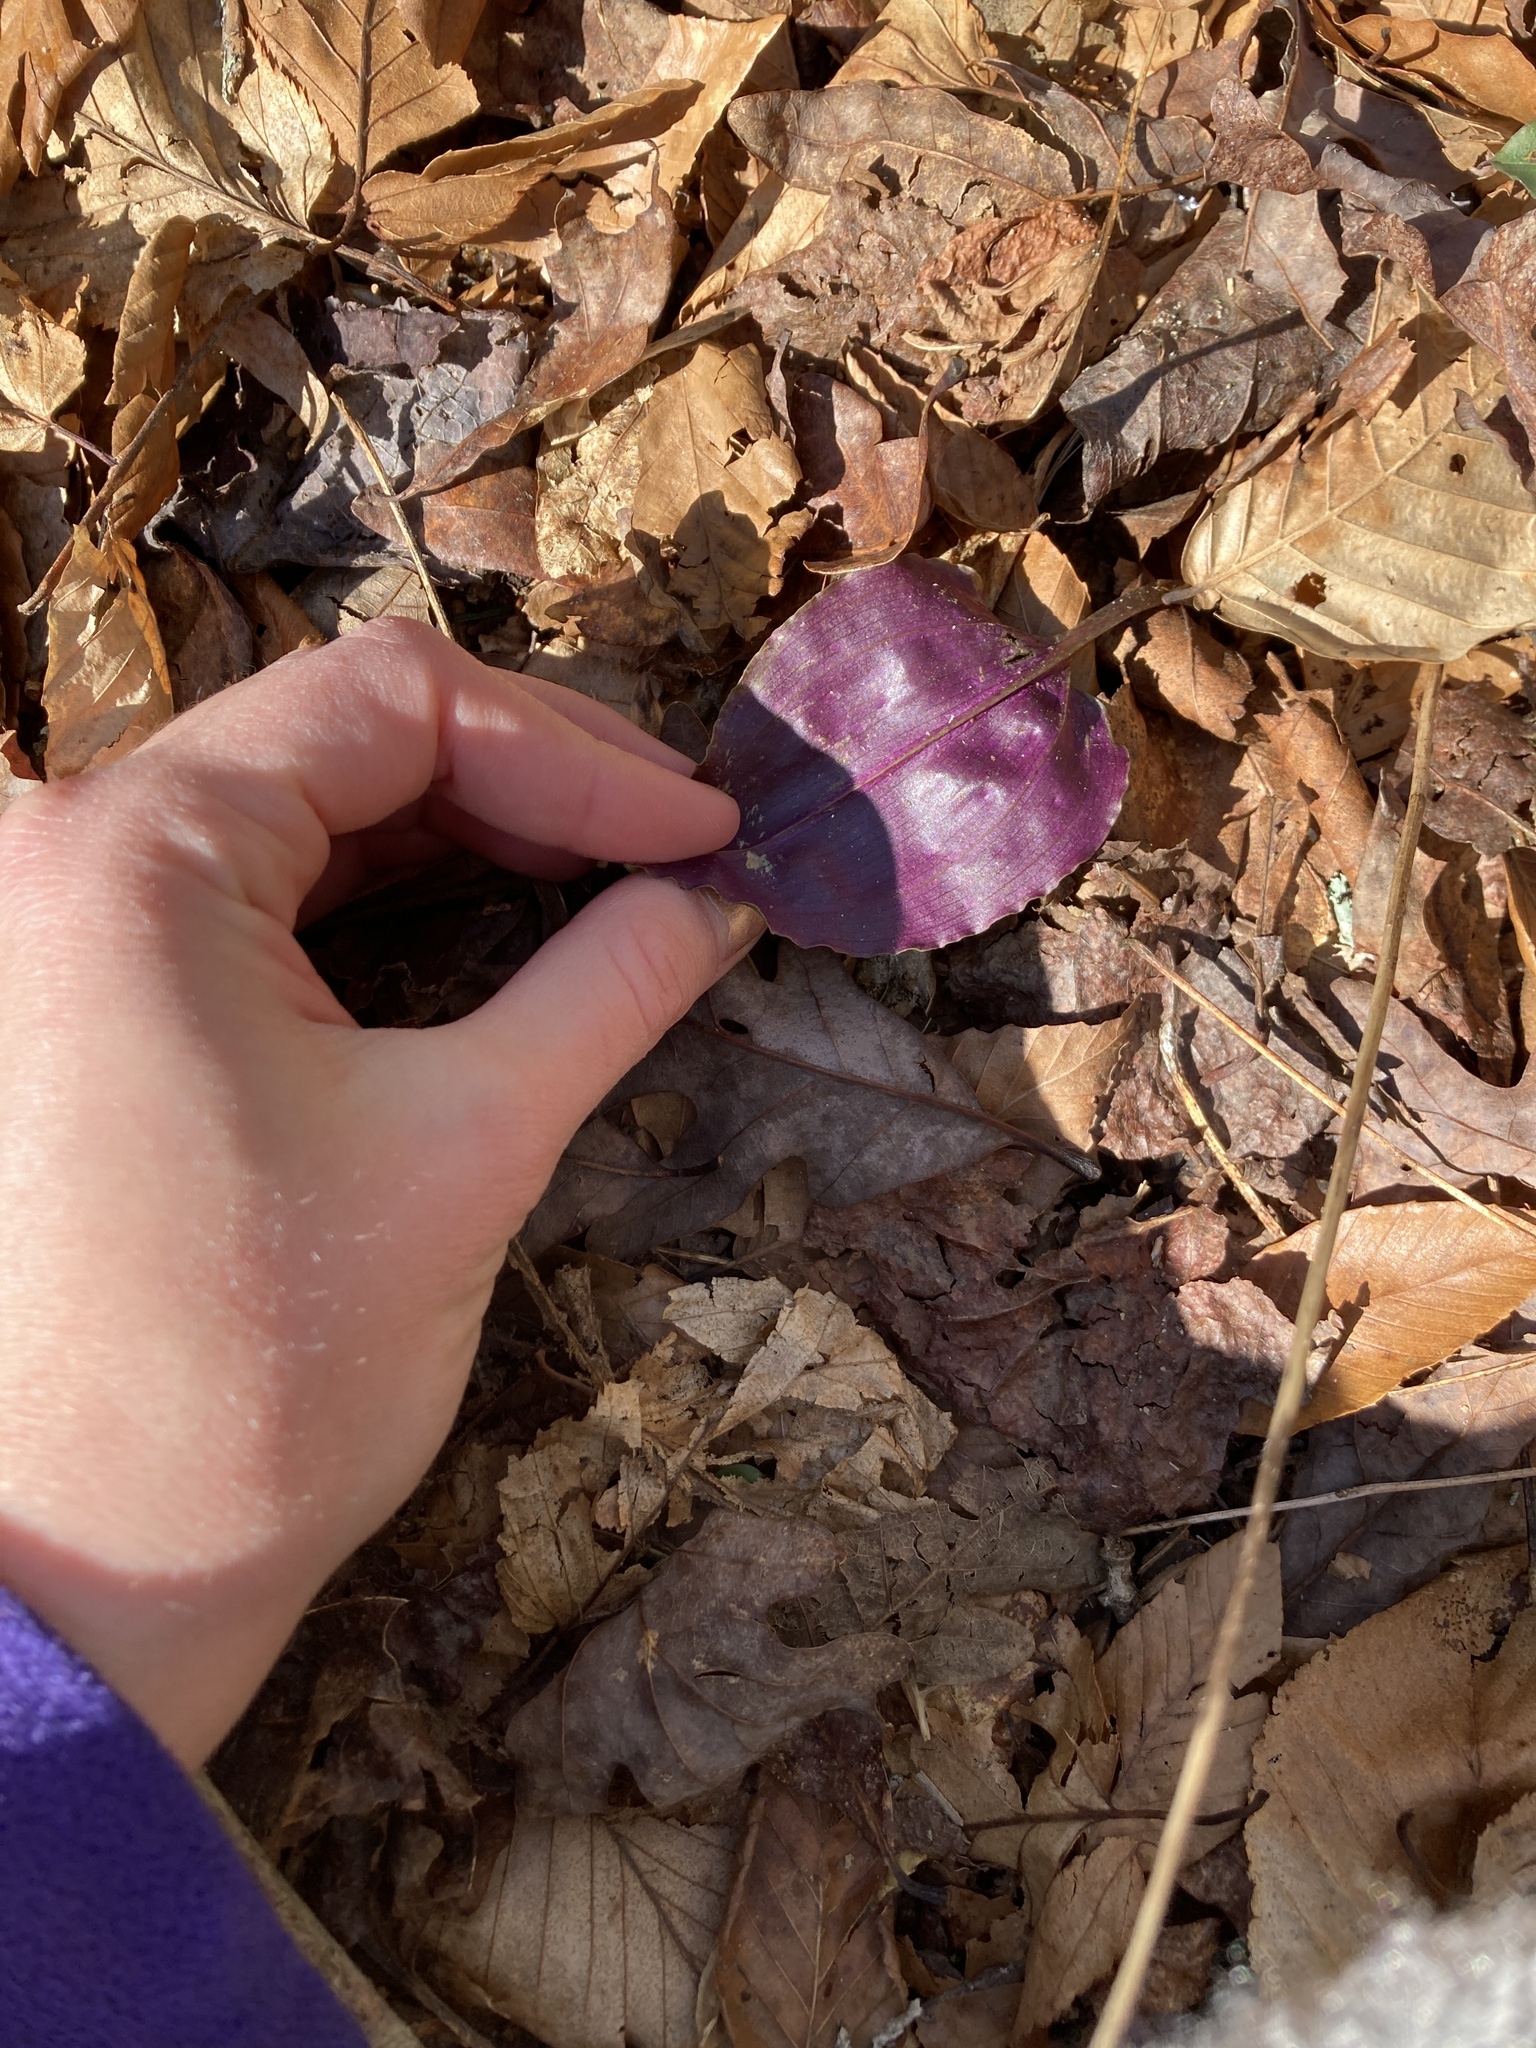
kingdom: Plantae
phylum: Tracheophyta
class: Liliopsida
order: Asparagales
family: Orchidaceae
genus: Tipularia
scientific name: Tipularia discolor
